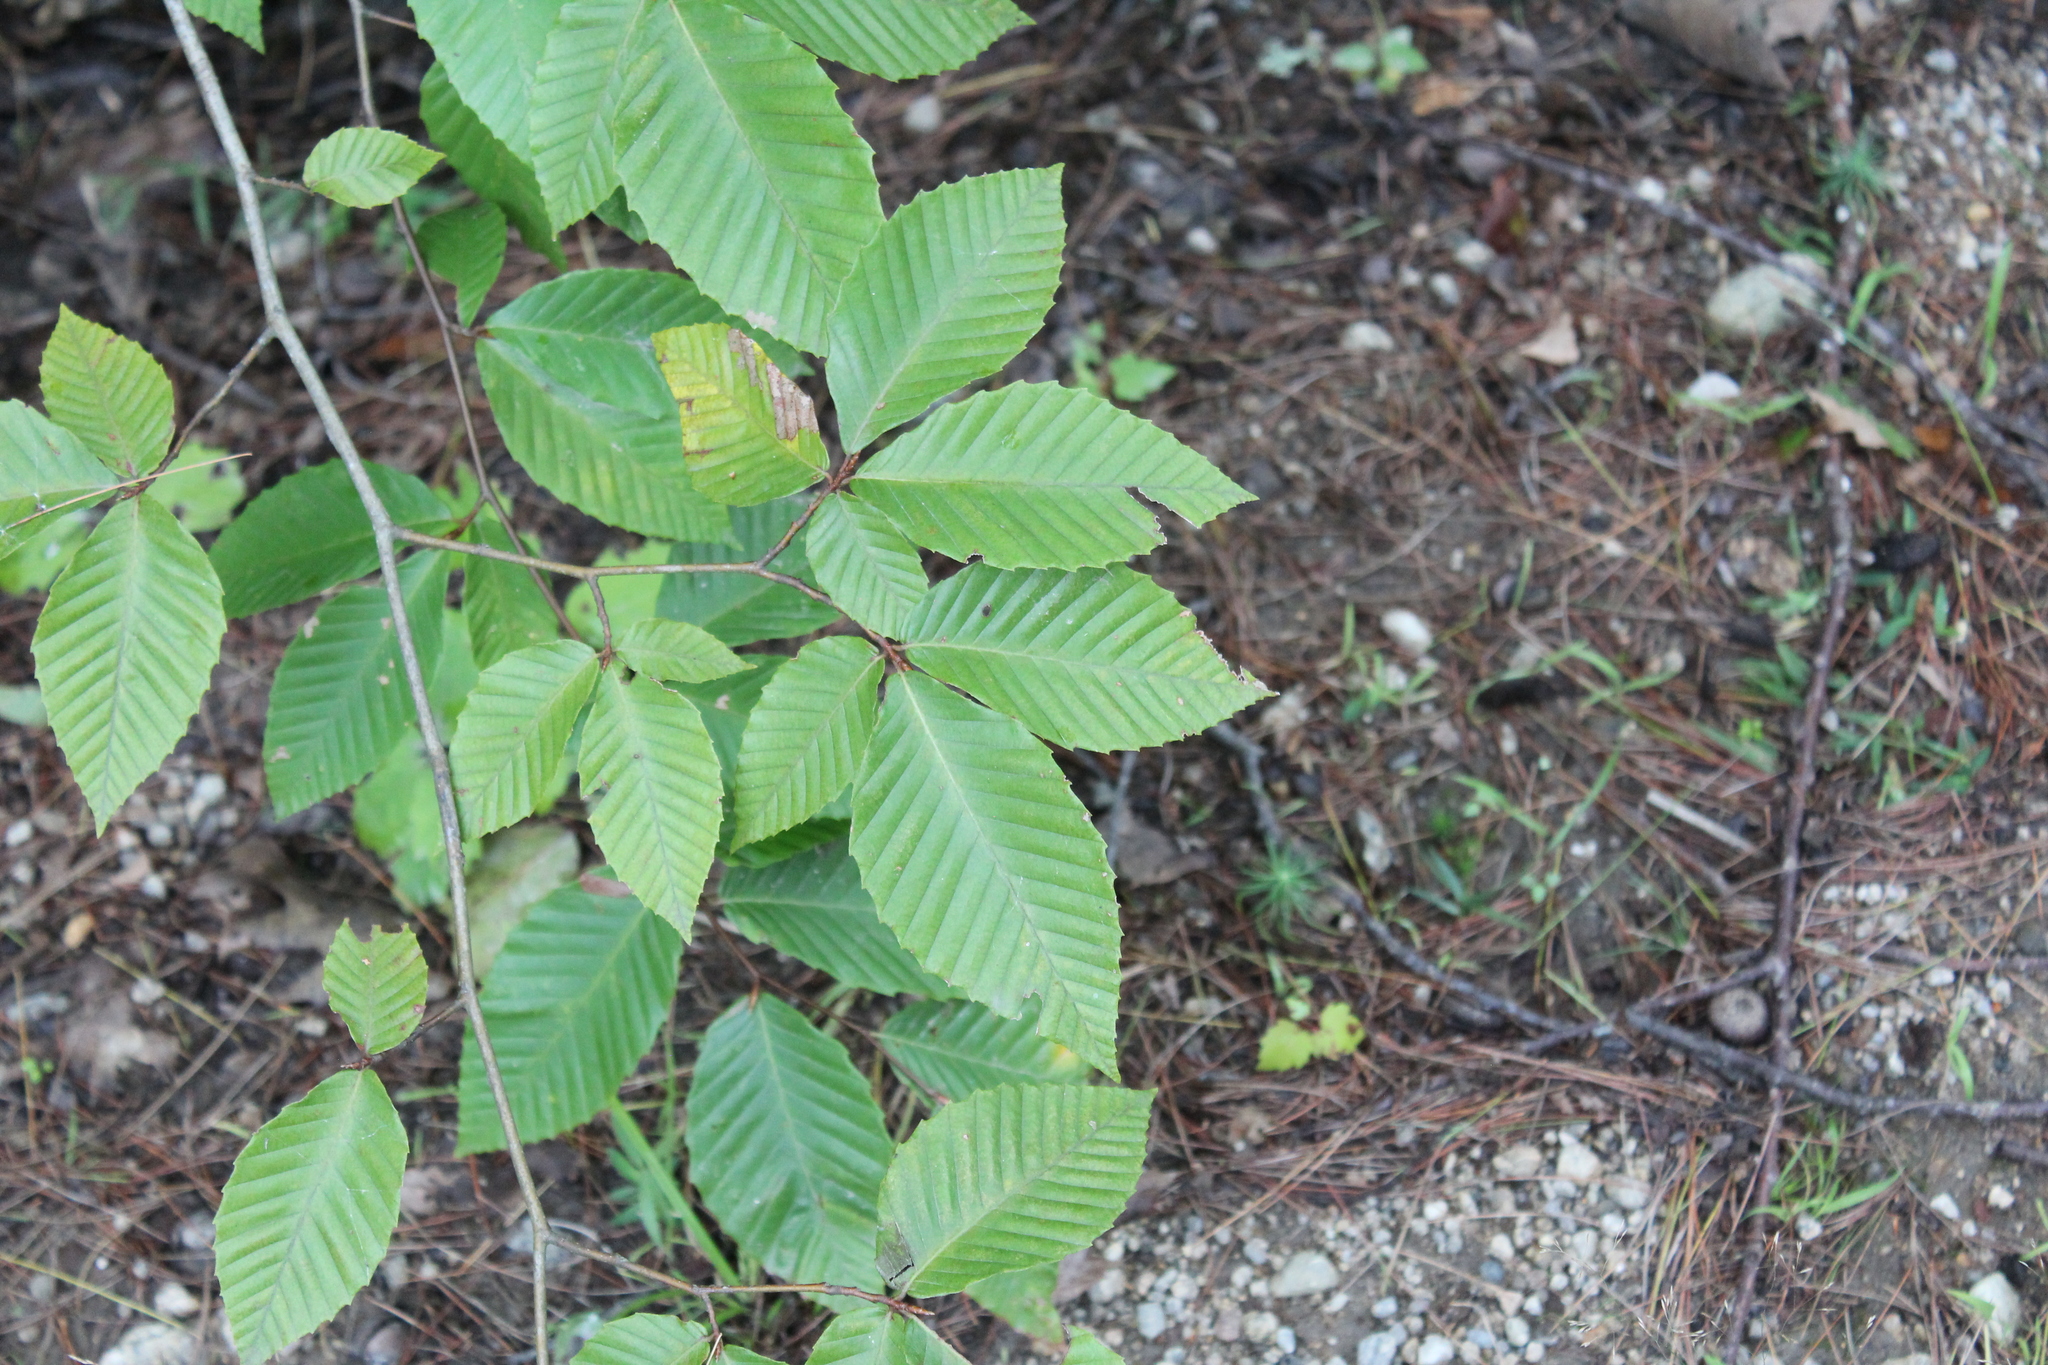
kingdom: Plantae
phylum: Tracheophyta
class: Magnoliopsida
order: Fagales
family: Fagaceae
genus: Fagus
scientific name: Fagus grandifolia
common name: American beech
